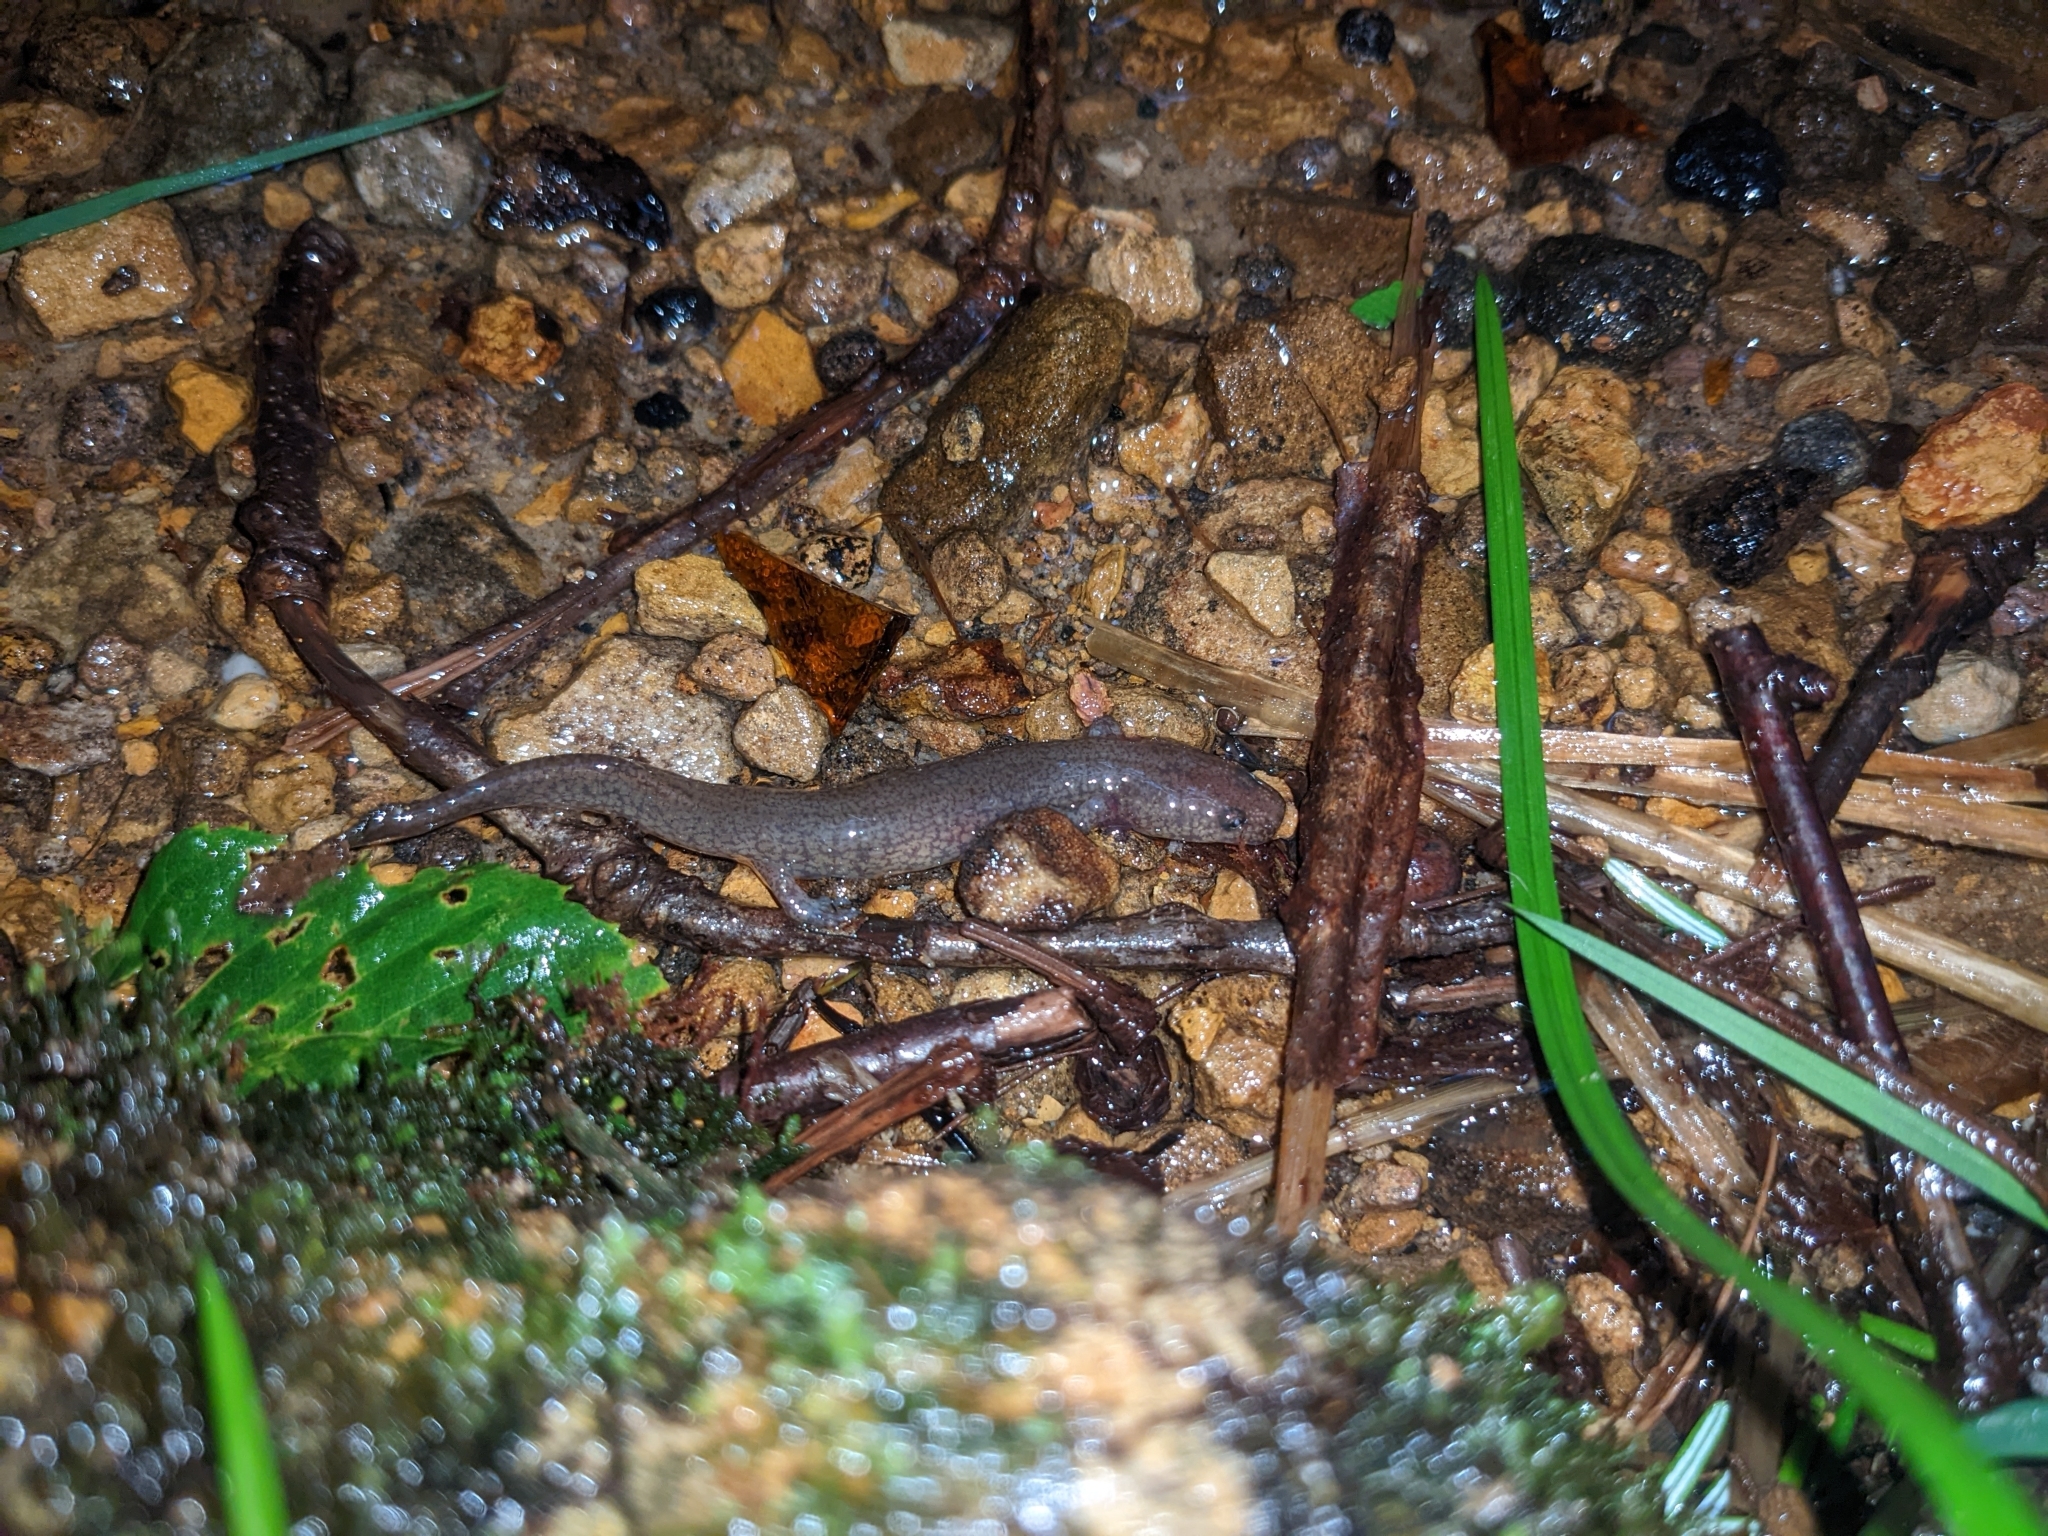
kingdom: Animalia
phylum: Chordata
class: Amphibia
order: Caudata
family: Plethodontidae
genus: Gyrinophilus
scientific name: Gyrinophilus porphyriticus
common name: Spring salamander
